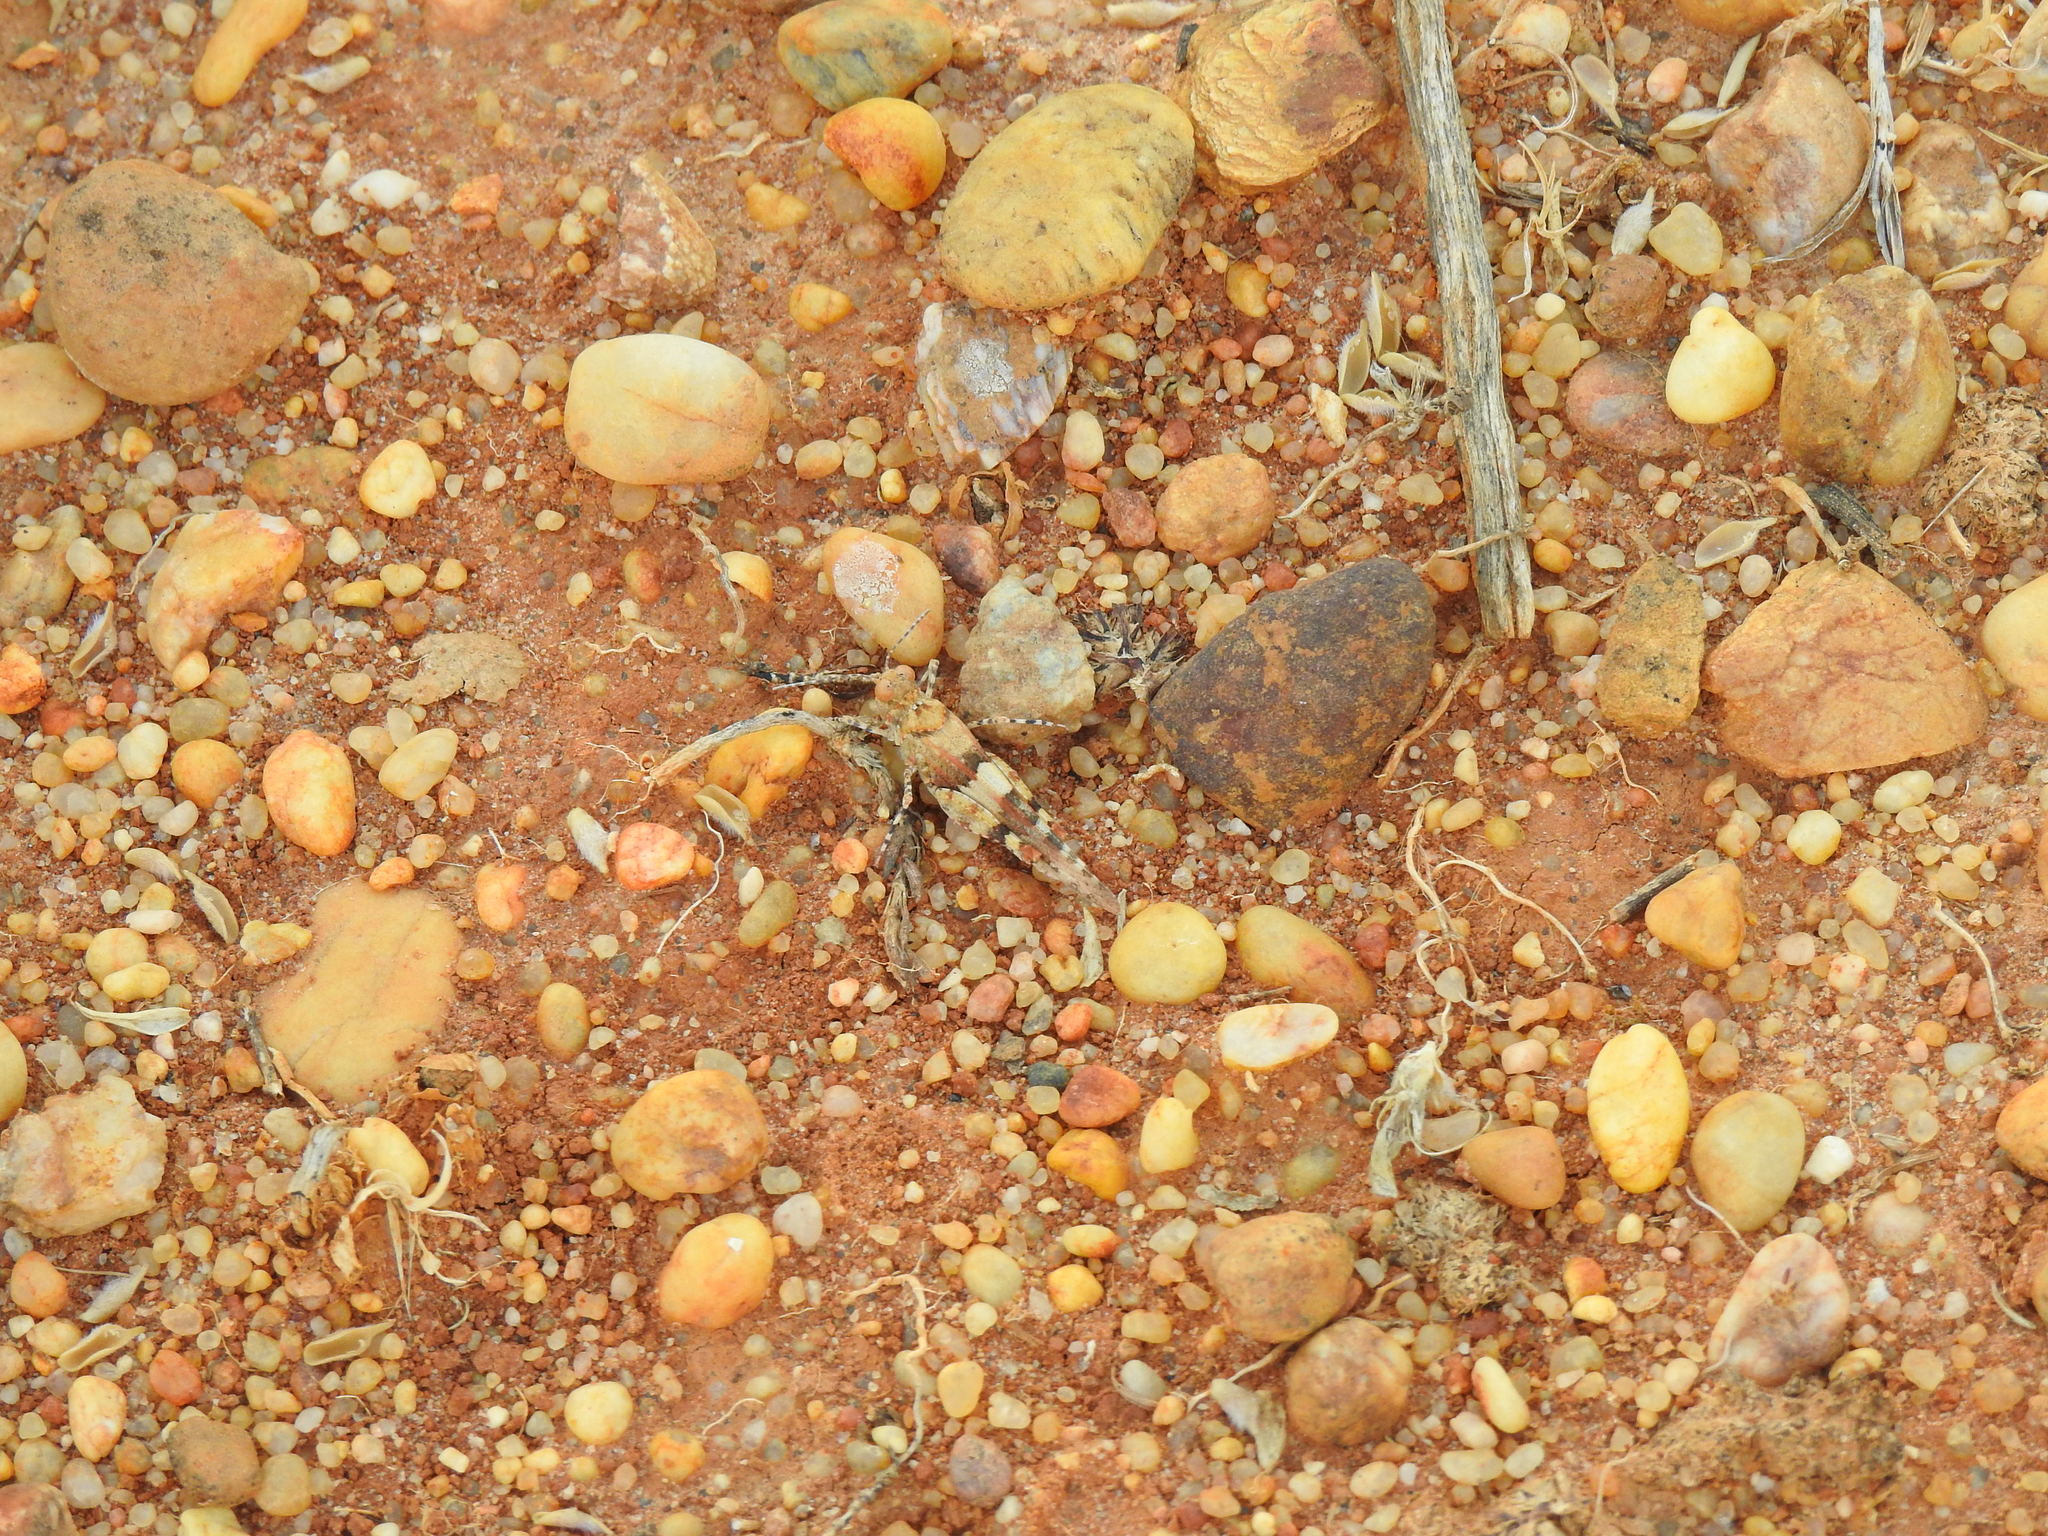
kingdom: Animalia
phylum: Arthropoda
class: Insecta
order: Orthoptera
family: Acrididae
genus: Sphingonotus
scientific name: Sphingonotus
